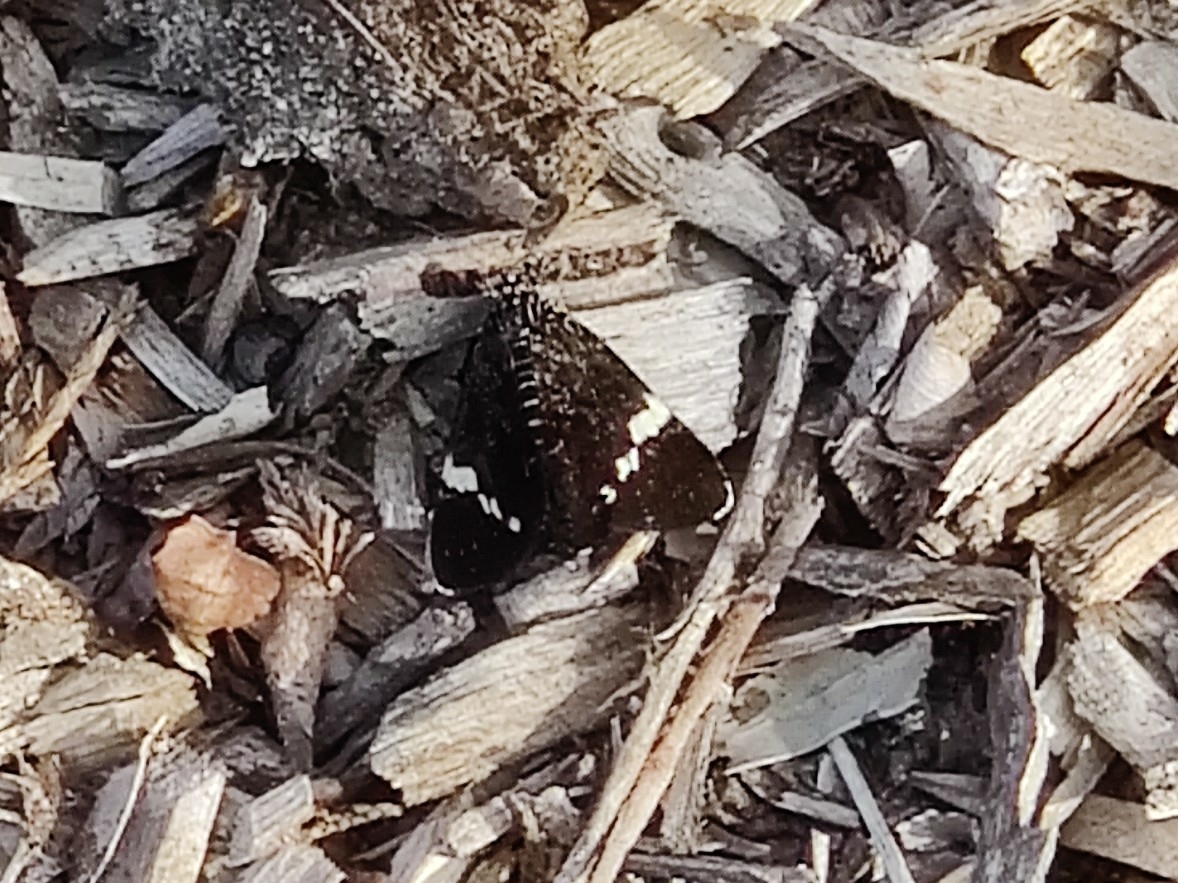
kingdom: Animalia
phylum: Arthropoda
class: Insecta
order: Lepidoptera
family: Noctuidae
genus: Platagarista
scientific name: Platagarista macleayi
